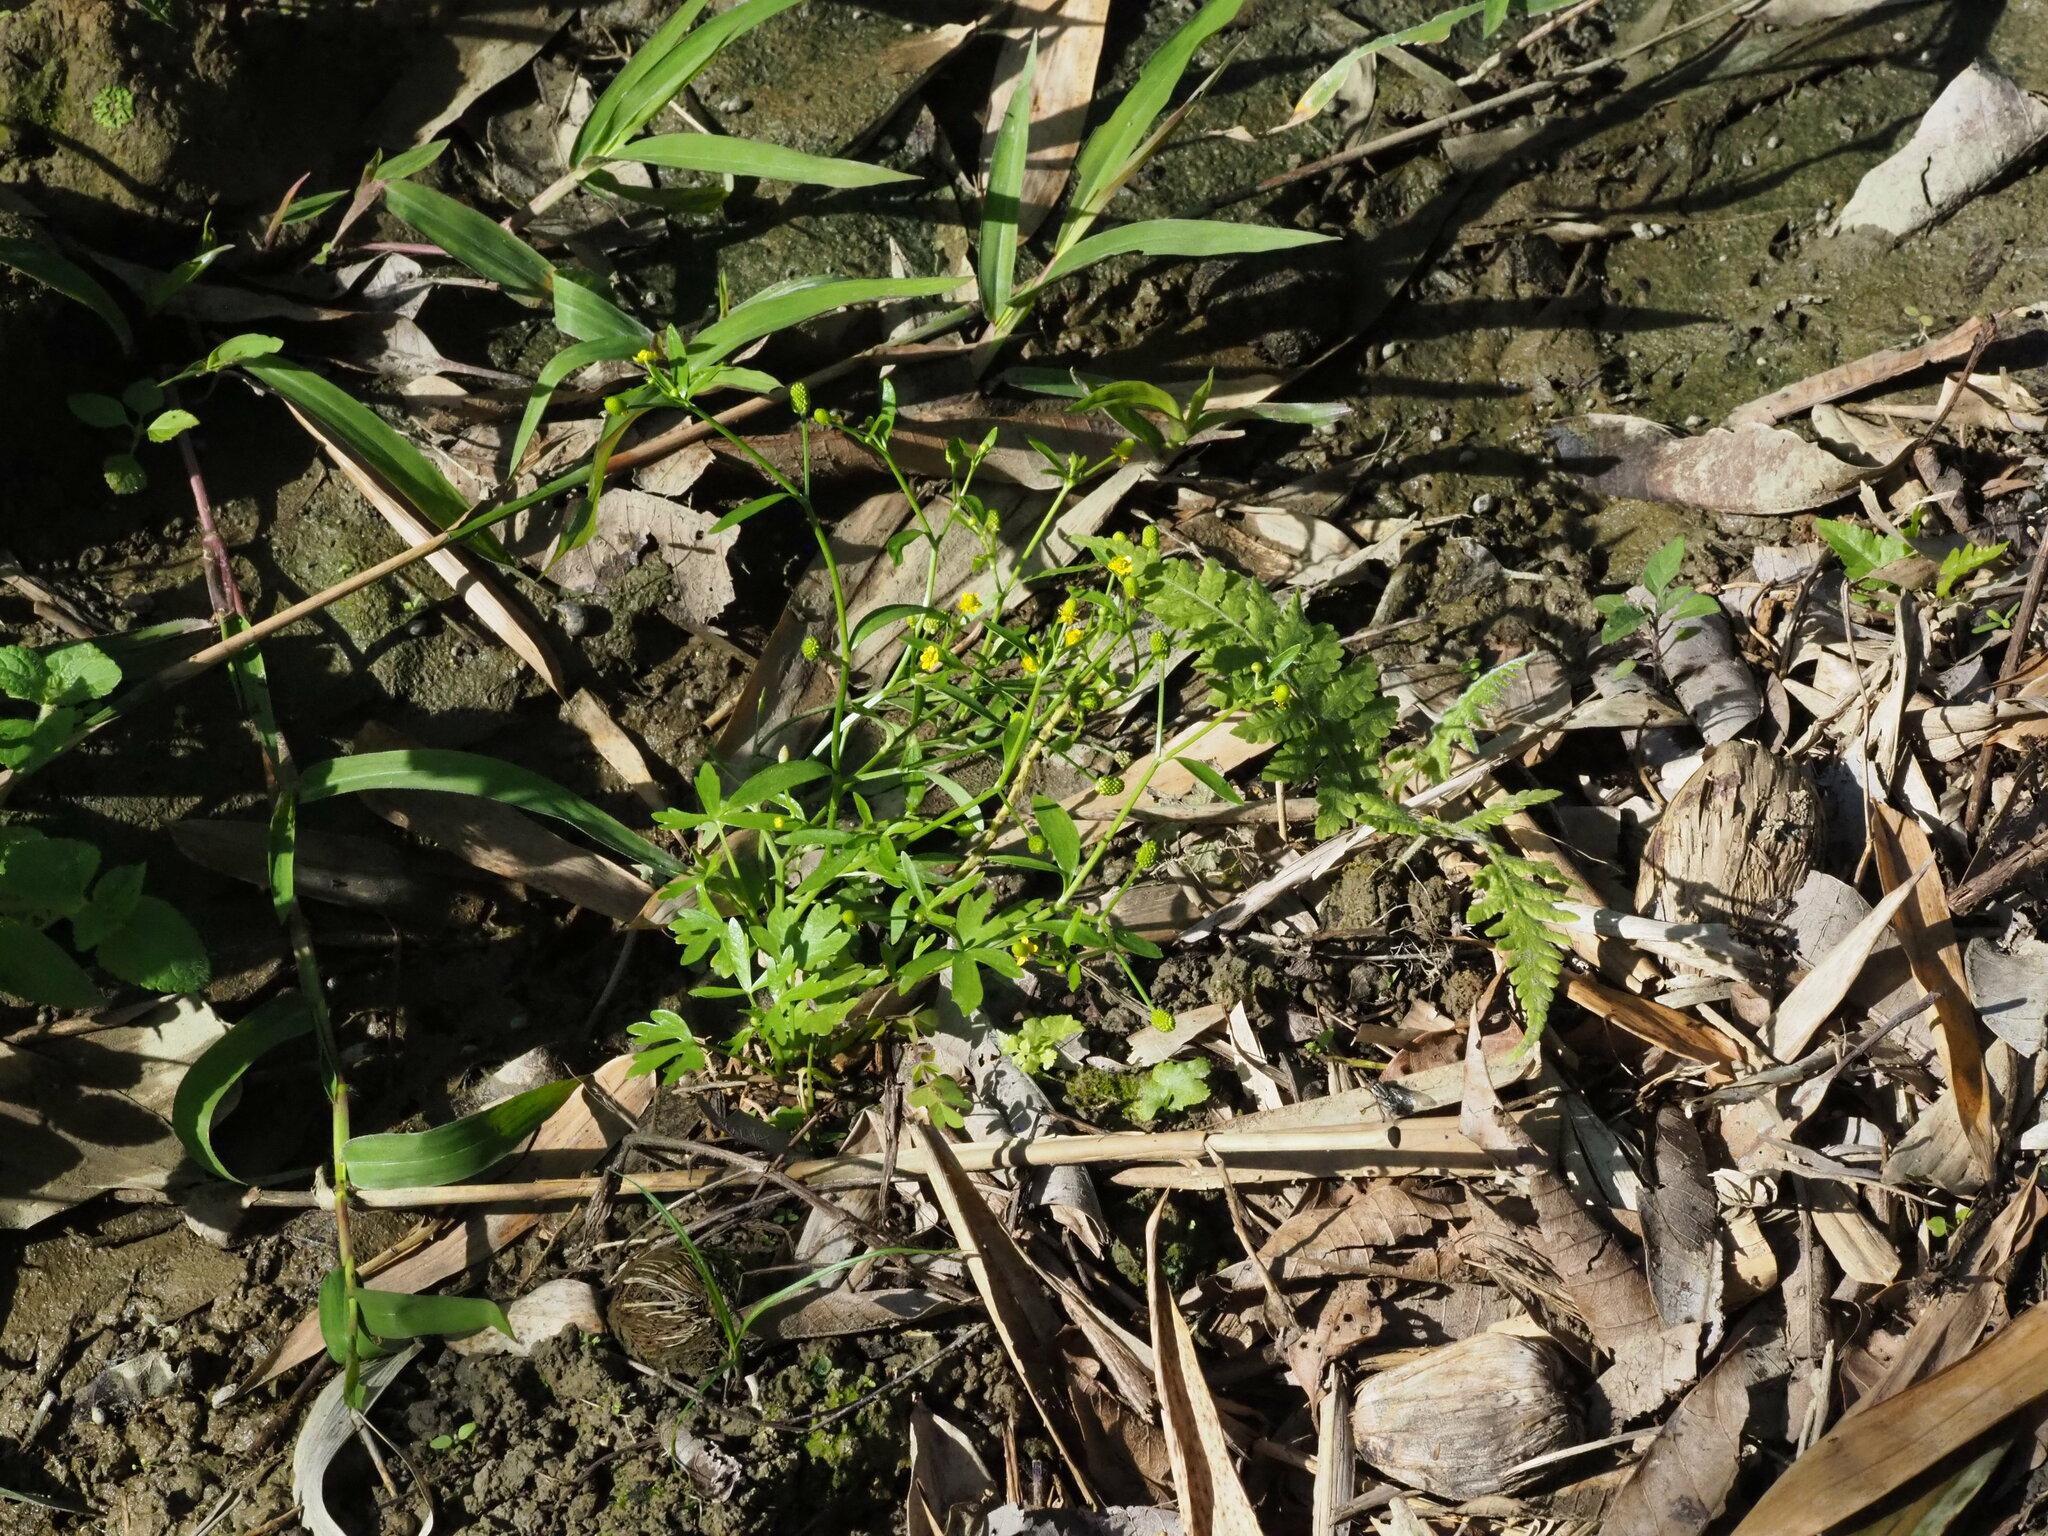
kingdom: Plantae
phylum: Tracheophyta
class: Magnoliopsida
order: Ranunculales
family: Ranunculaceae
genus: Ranunculus
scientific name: Ranunculus sceleratus
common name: Celery-leaved buttercup
